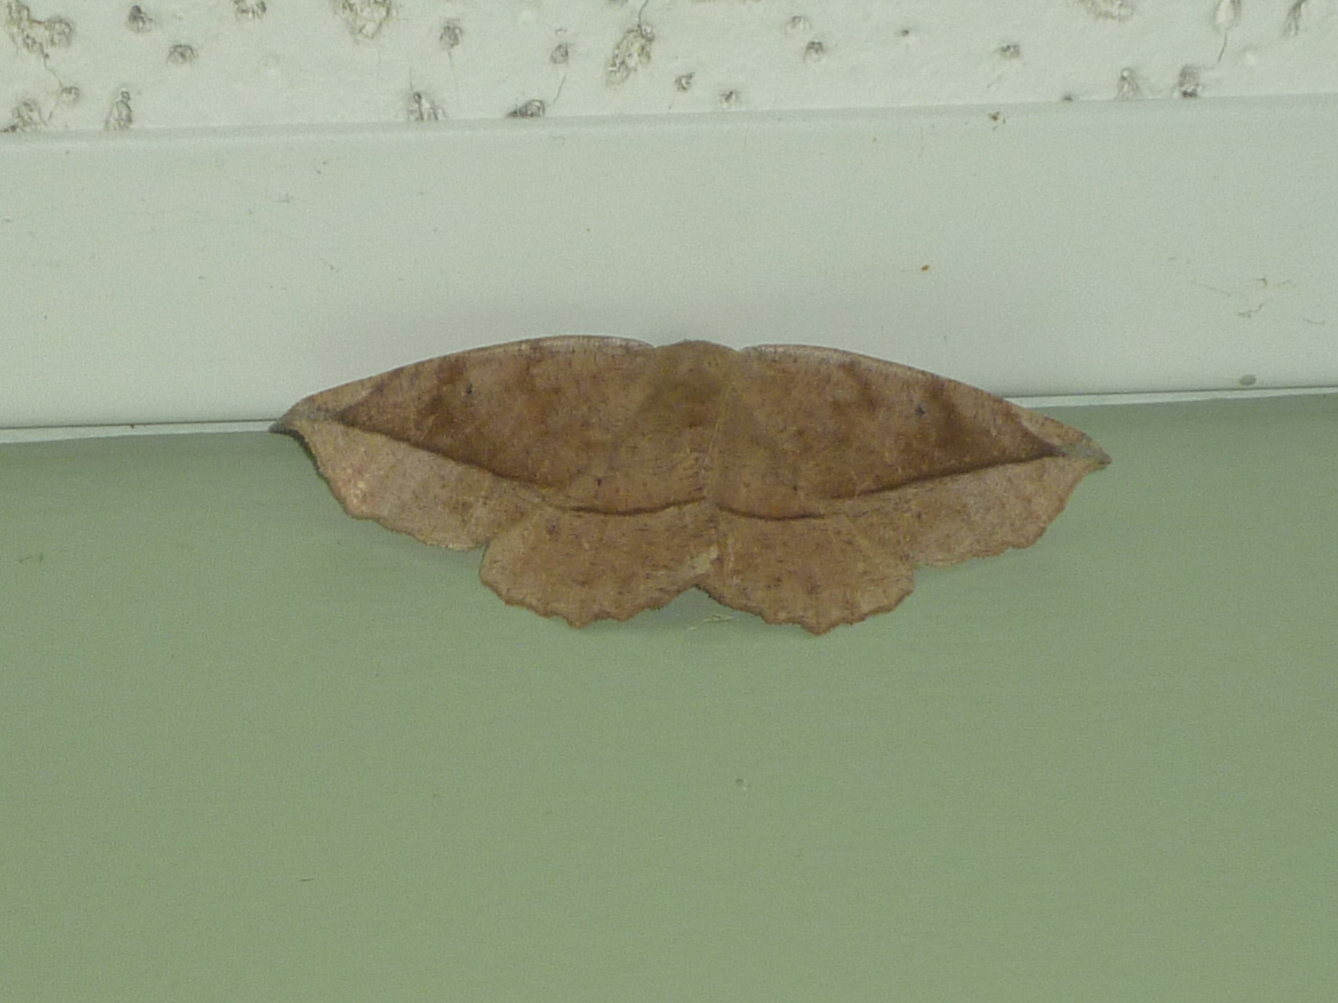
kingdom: Animalia
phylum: Arthropoda
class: Insecta
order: Lepidoptera
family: Geometridae
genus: Eutrapela
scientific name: Eutrapela clemataria
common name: Curved-toothed geometer
